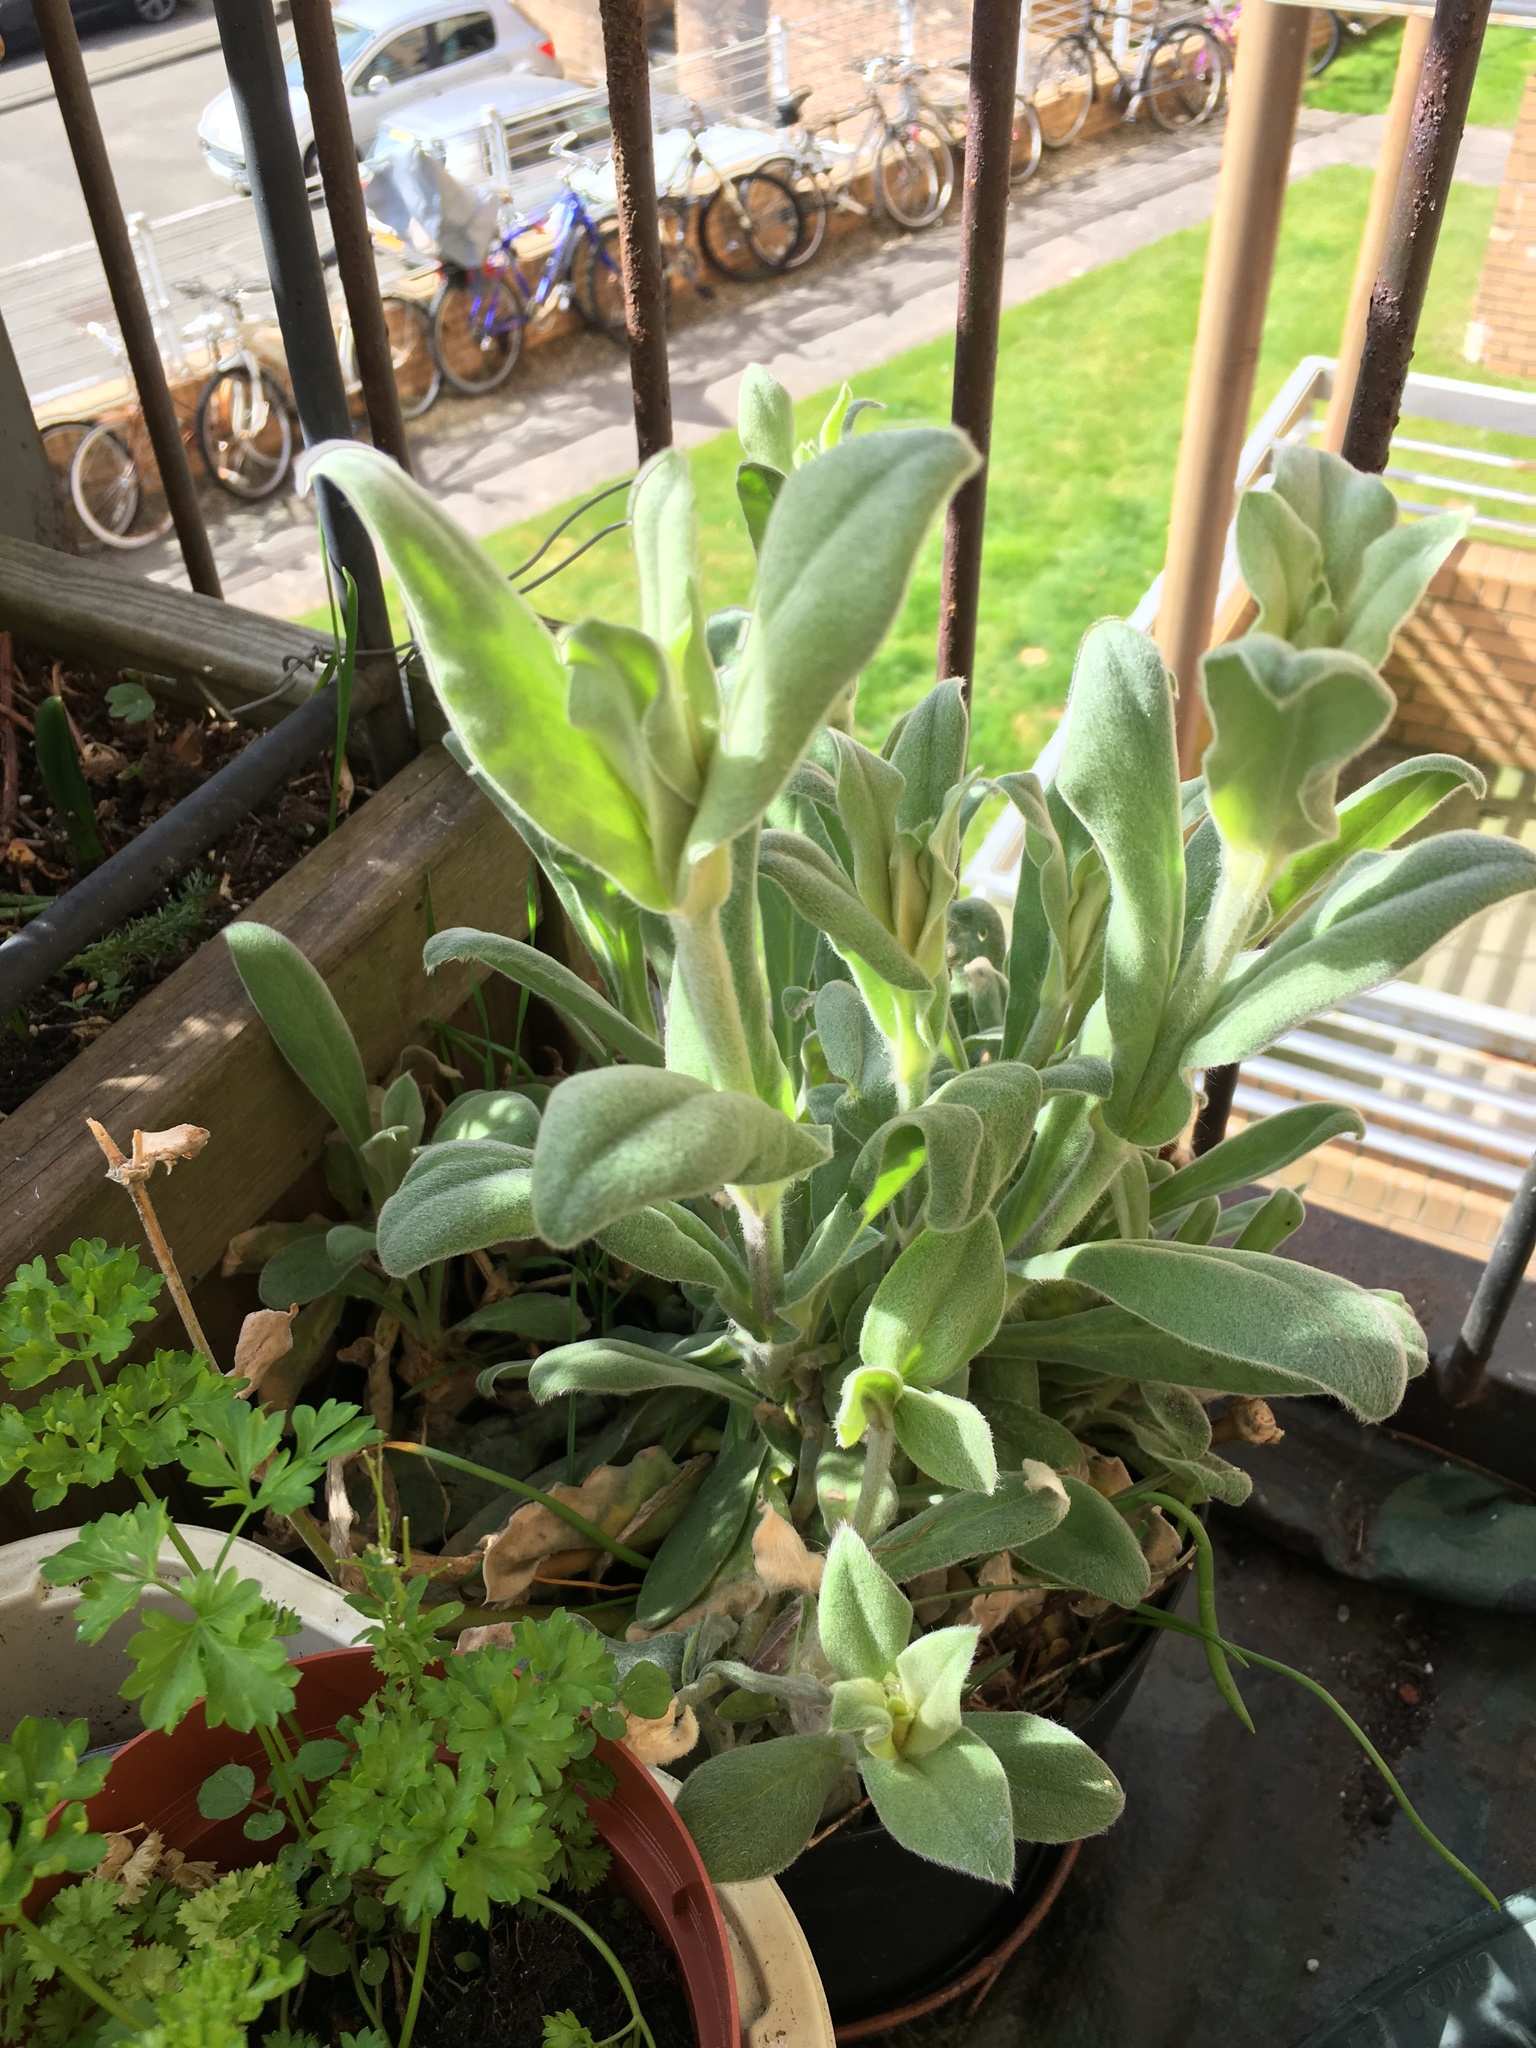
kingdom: Plantae
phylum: Tracheophyta
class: Magnoliopsida
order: Caryophyllales
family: Caryophyllaceae
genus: Silene
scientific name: Silene coronaria
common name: Rose campion
